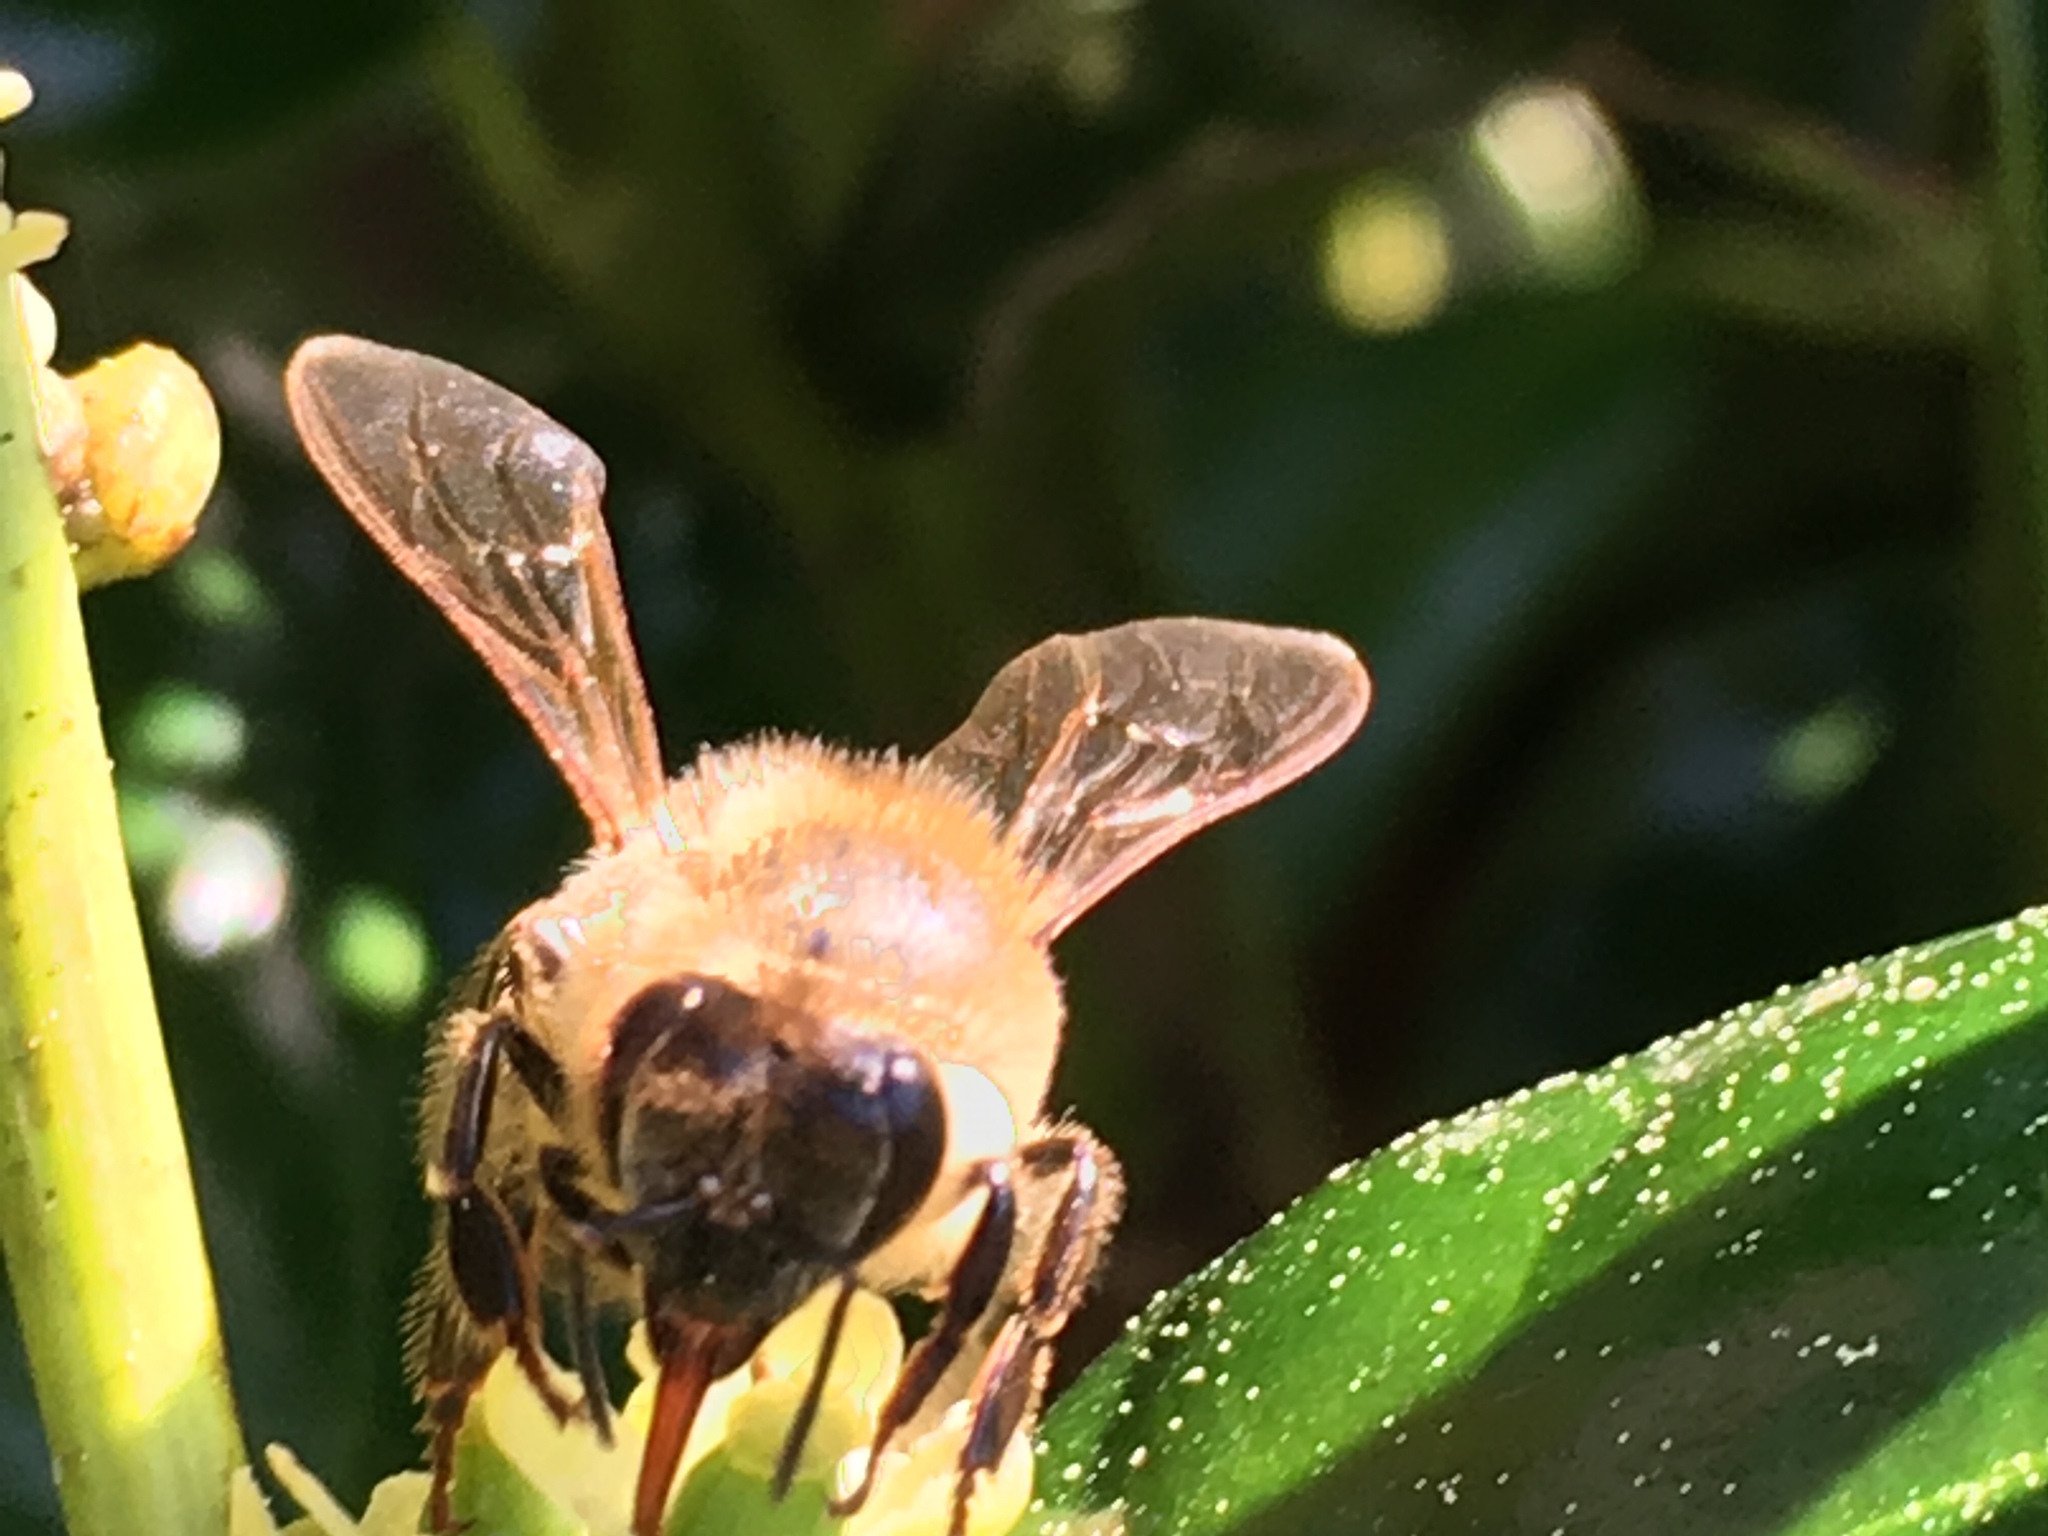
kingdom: Animalia
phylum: Arthropoda
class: Insecta
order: Hymenoptera
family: Apidae
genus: Apis
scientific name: Apis mellifera
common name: Honey bee
